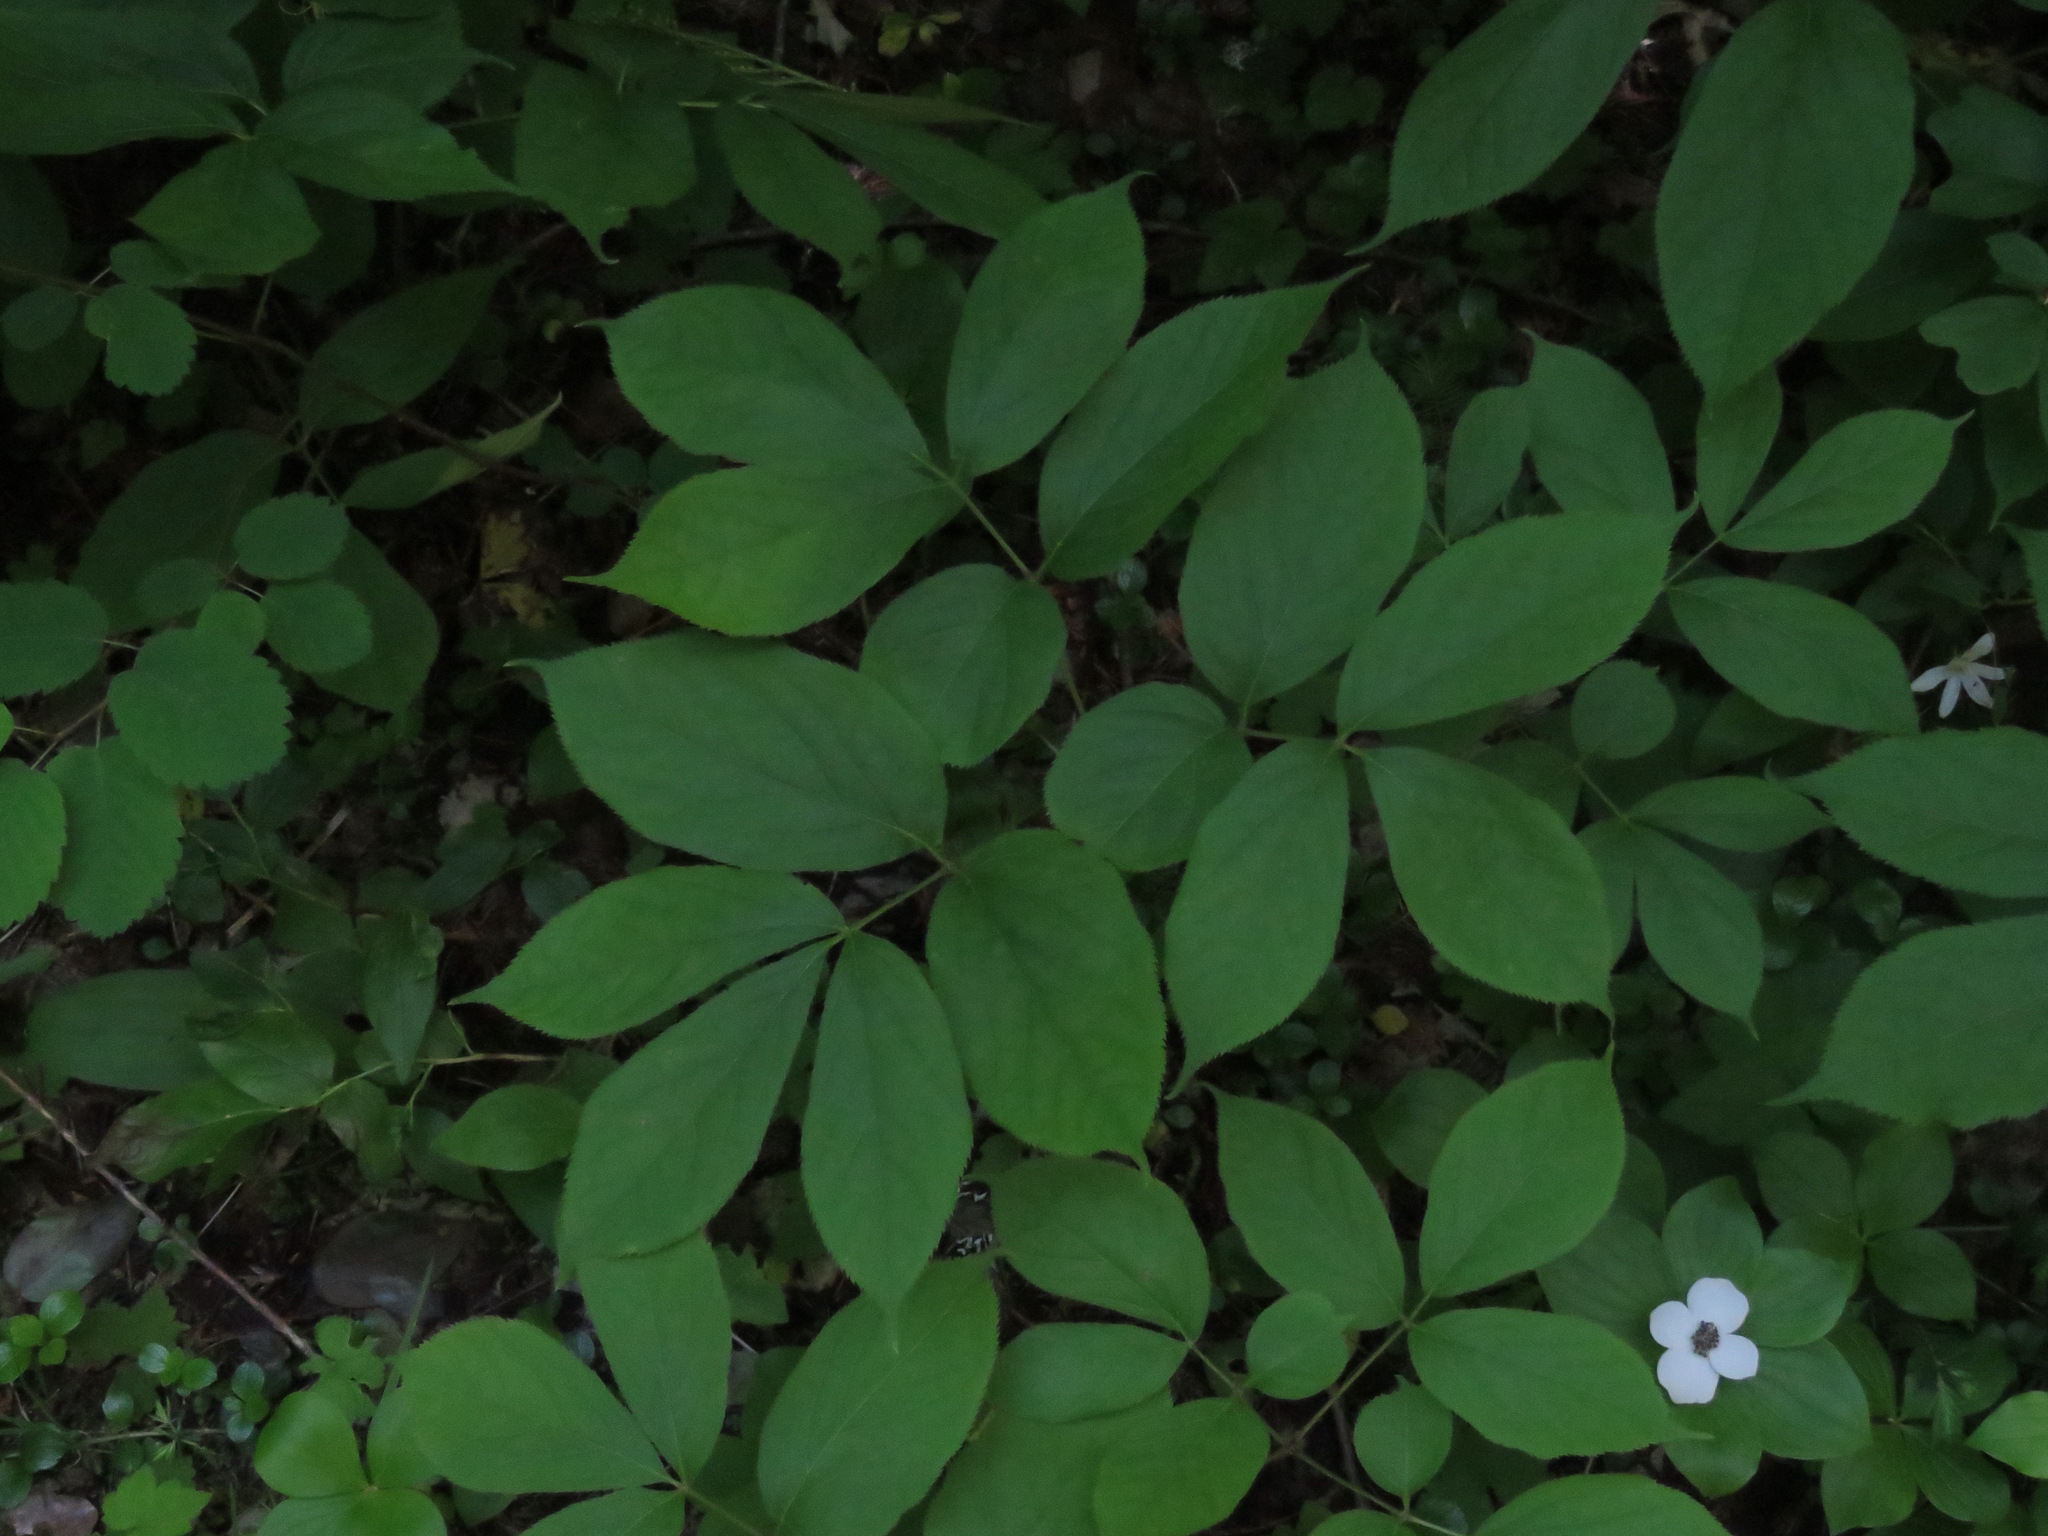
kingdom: Plantae
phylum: Tracheophyta
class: Magnoliopsida
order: Apiales
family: Araliaceae
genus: Aralia
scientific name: Aralia nudicaulis
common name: Wild sarsaparilla
